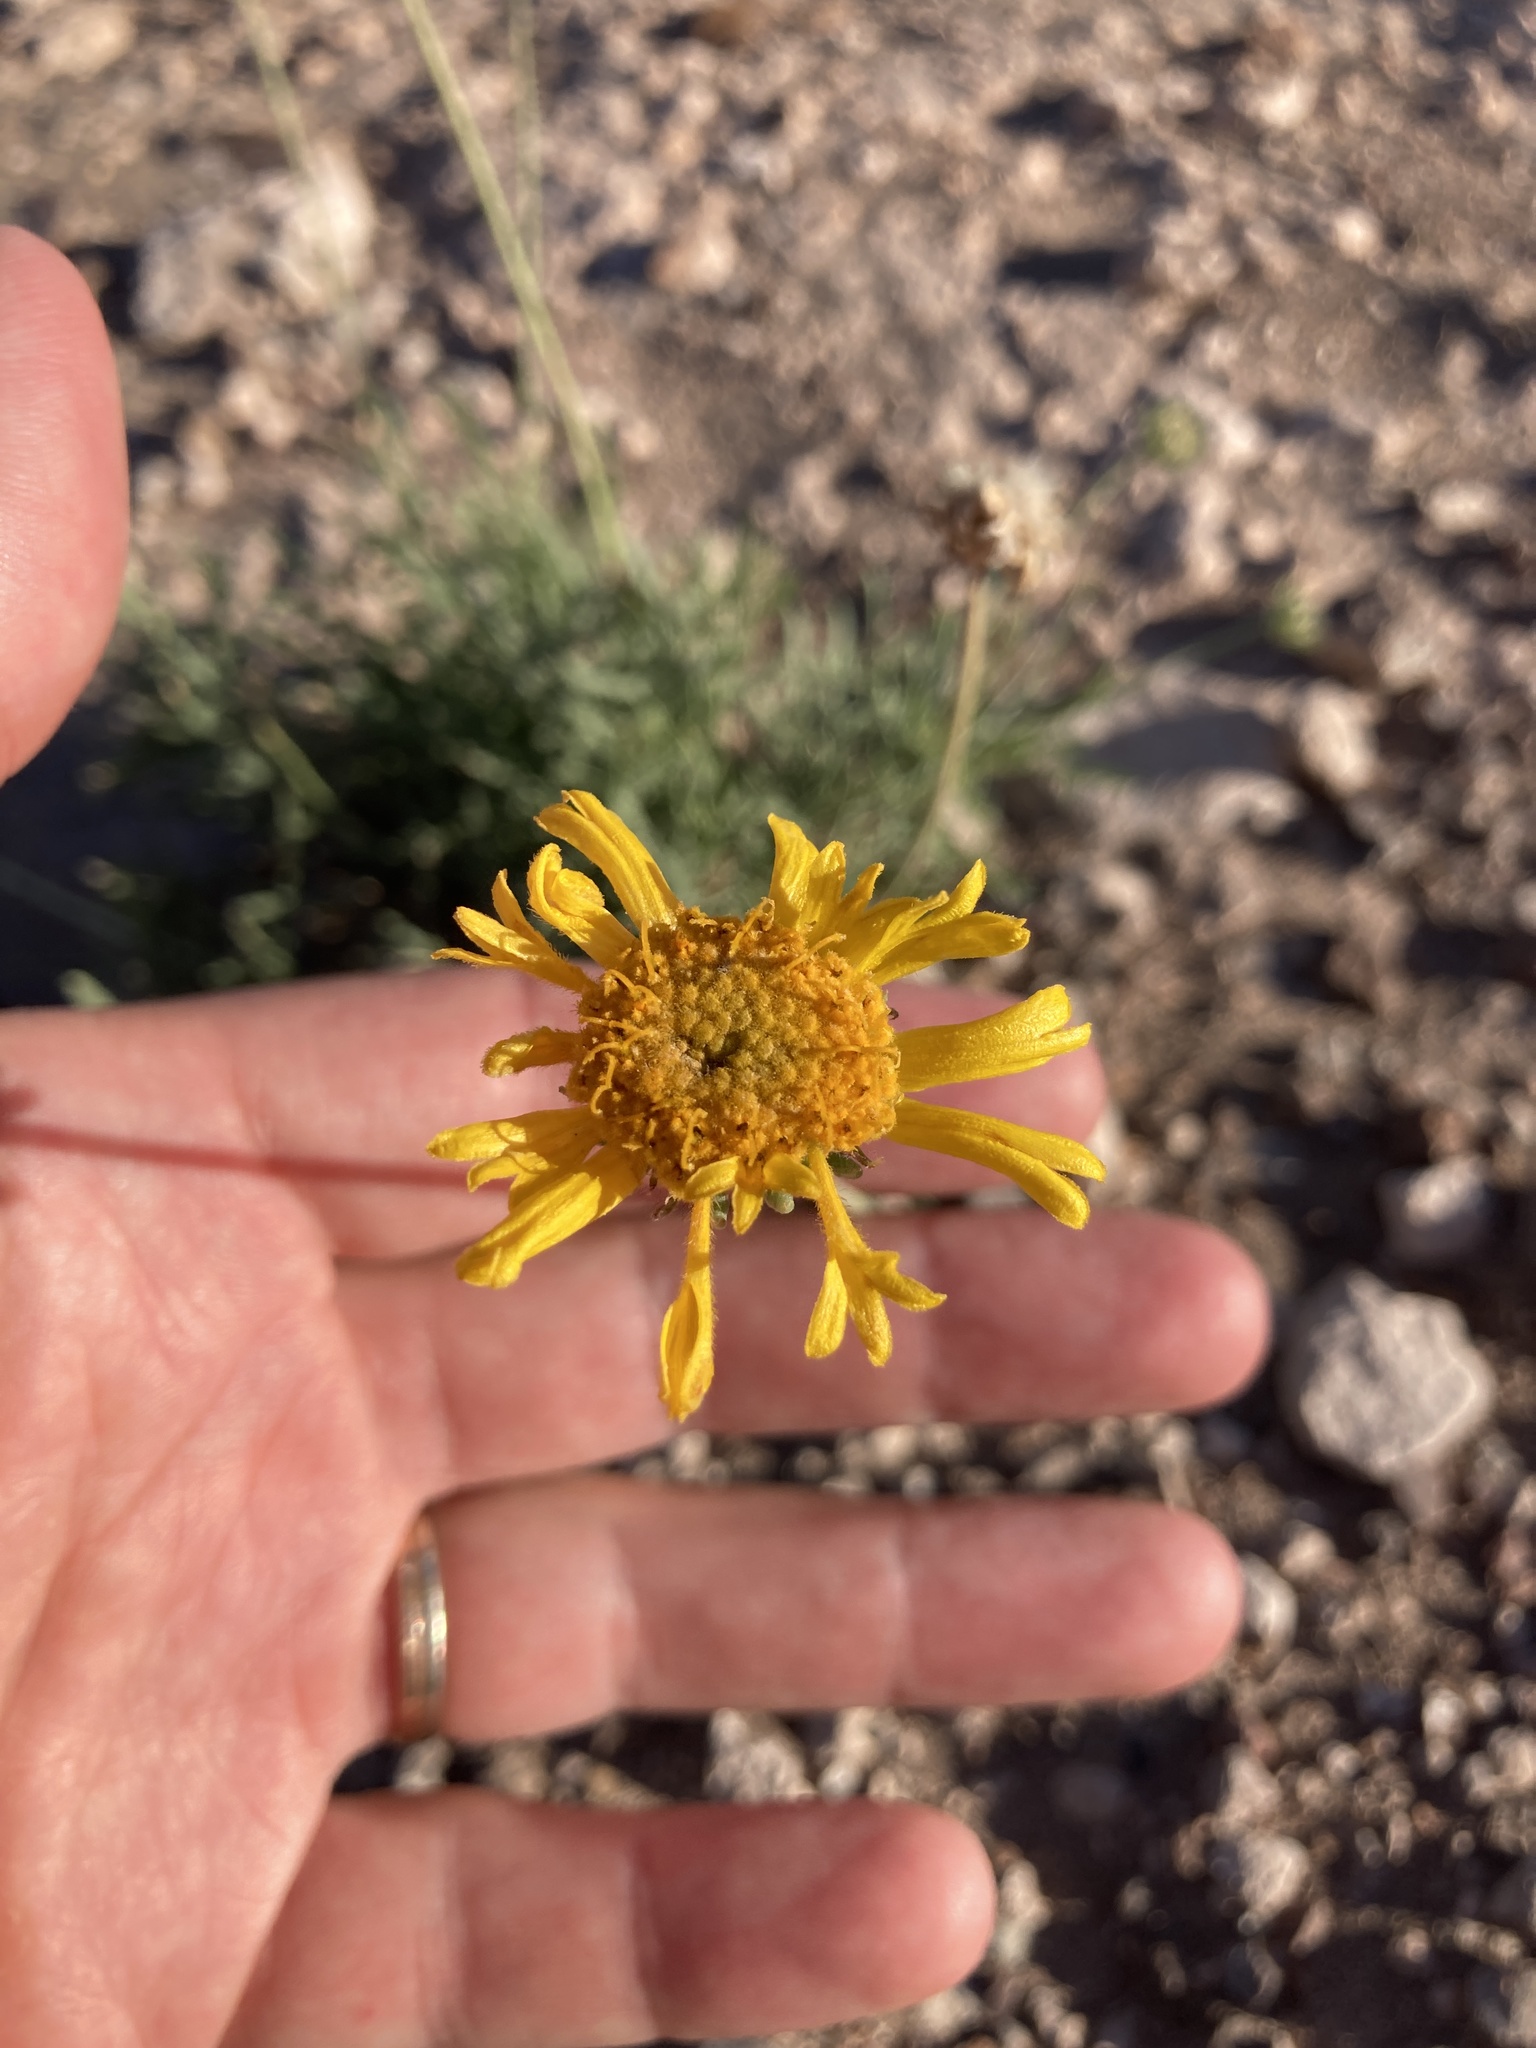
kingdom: Plantae
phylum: Tracheophyta
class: Magnoliopsida
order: Asterales
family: Asteraceae
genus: Gaillardia
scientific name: Gaillardia cabrerae
